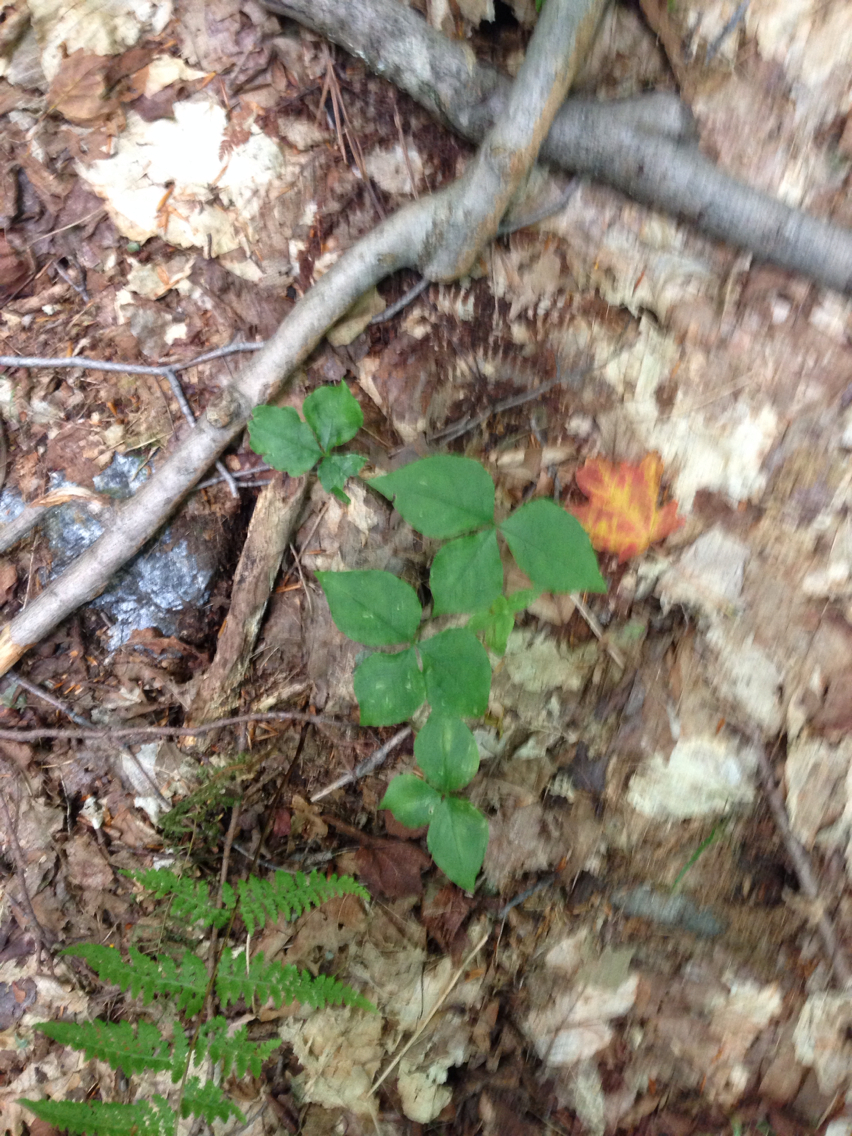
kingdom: Plantae
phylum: Tracheophyta
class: Liliopsida
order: Alismatales
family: Araceae
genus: Arisaema
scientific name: Arisaema triphyllum
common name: Jack-in-the-pulpit
